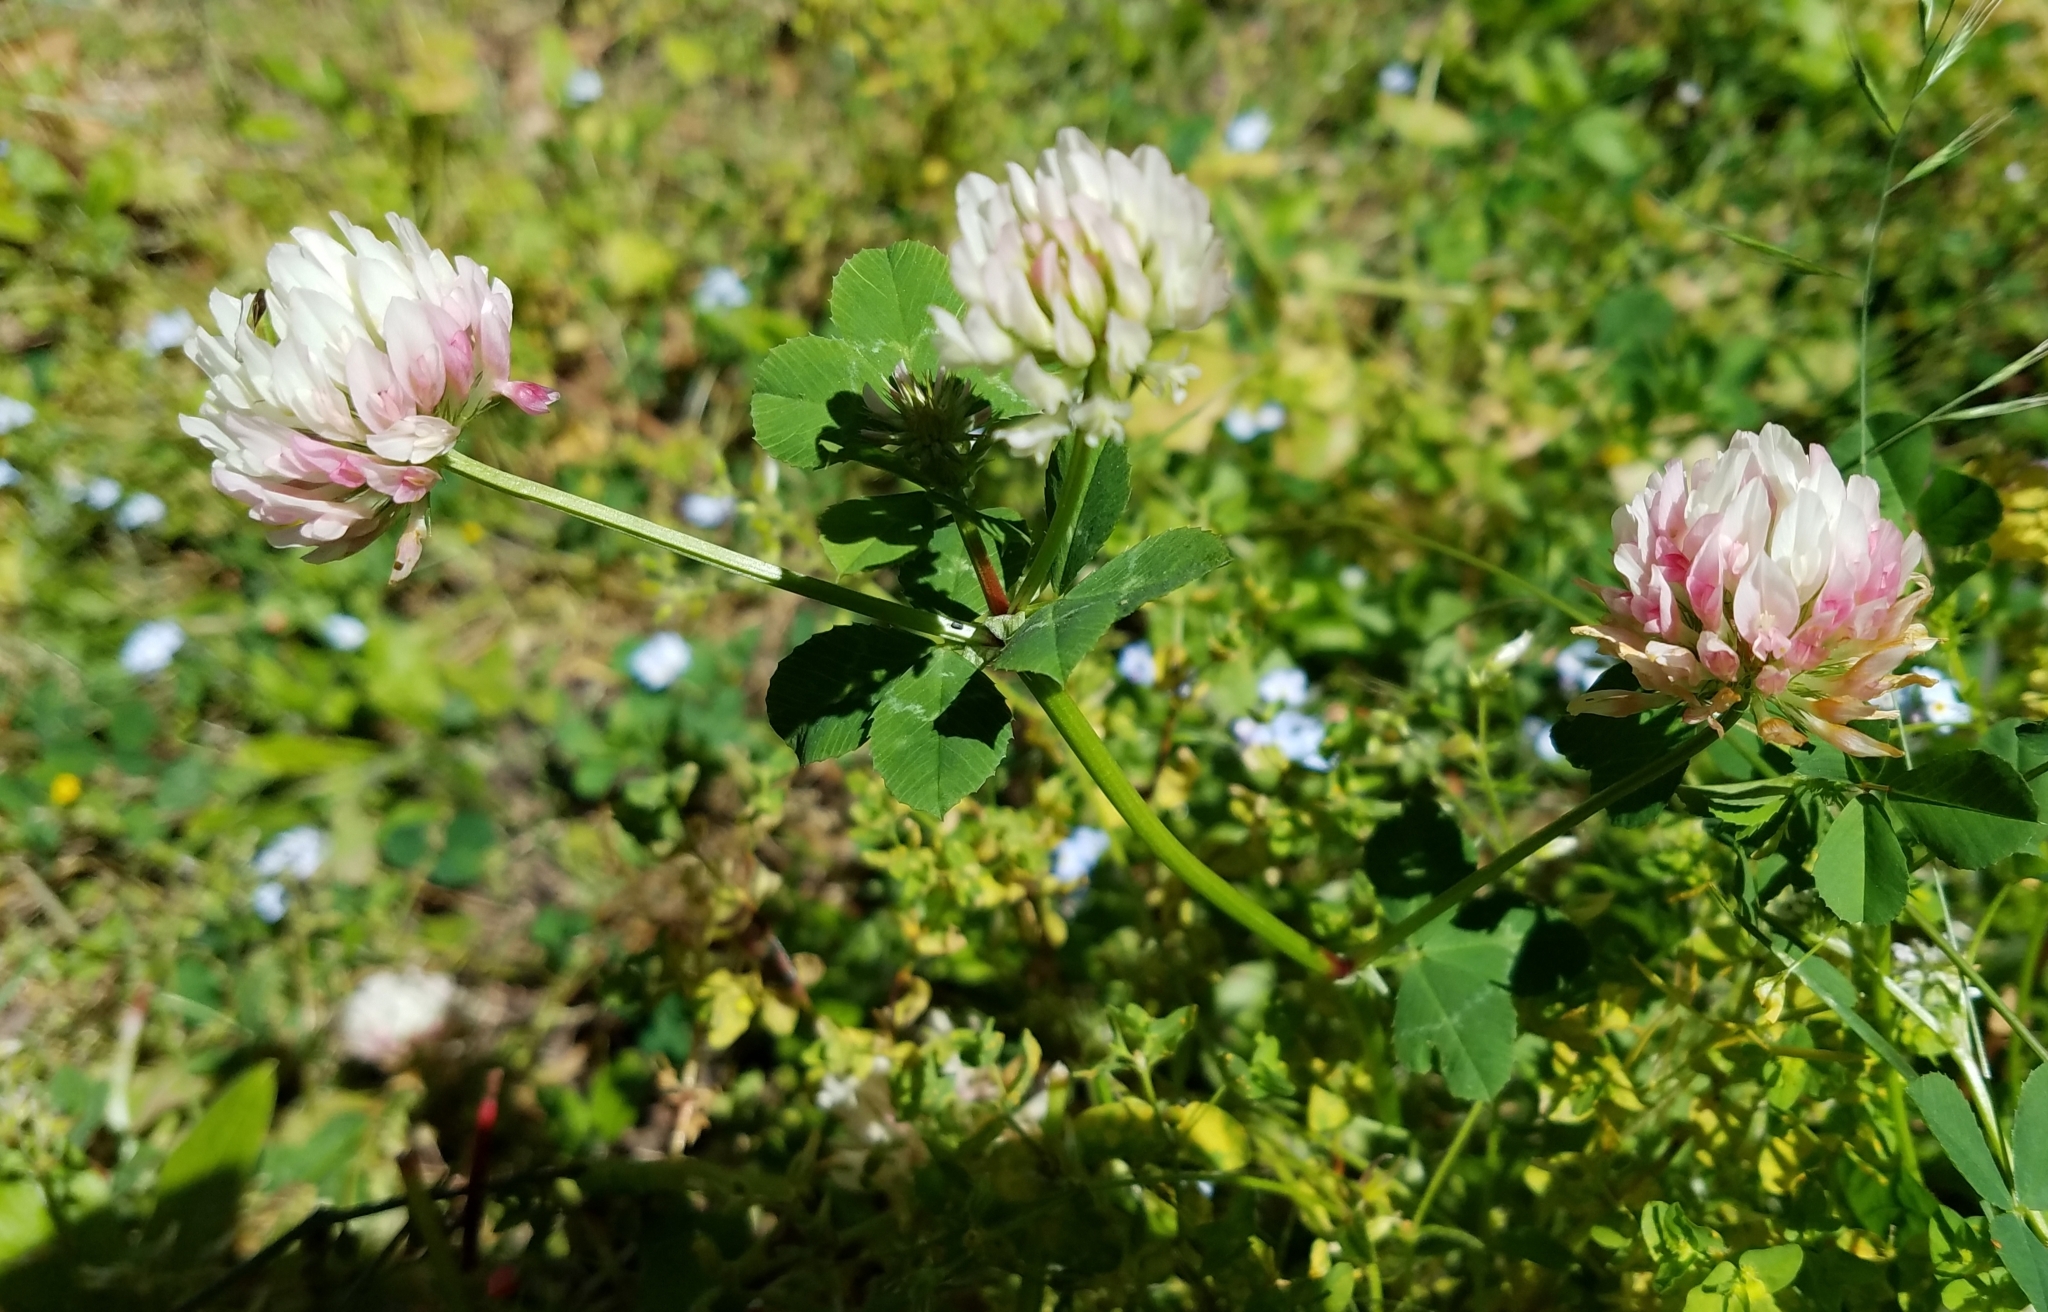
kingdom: Plantae
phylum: Tracheophyta
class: Magnoliopsida
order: Fabales
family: Fabaceae
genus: Trifolium
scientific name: Trifolium repens
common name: White clover
